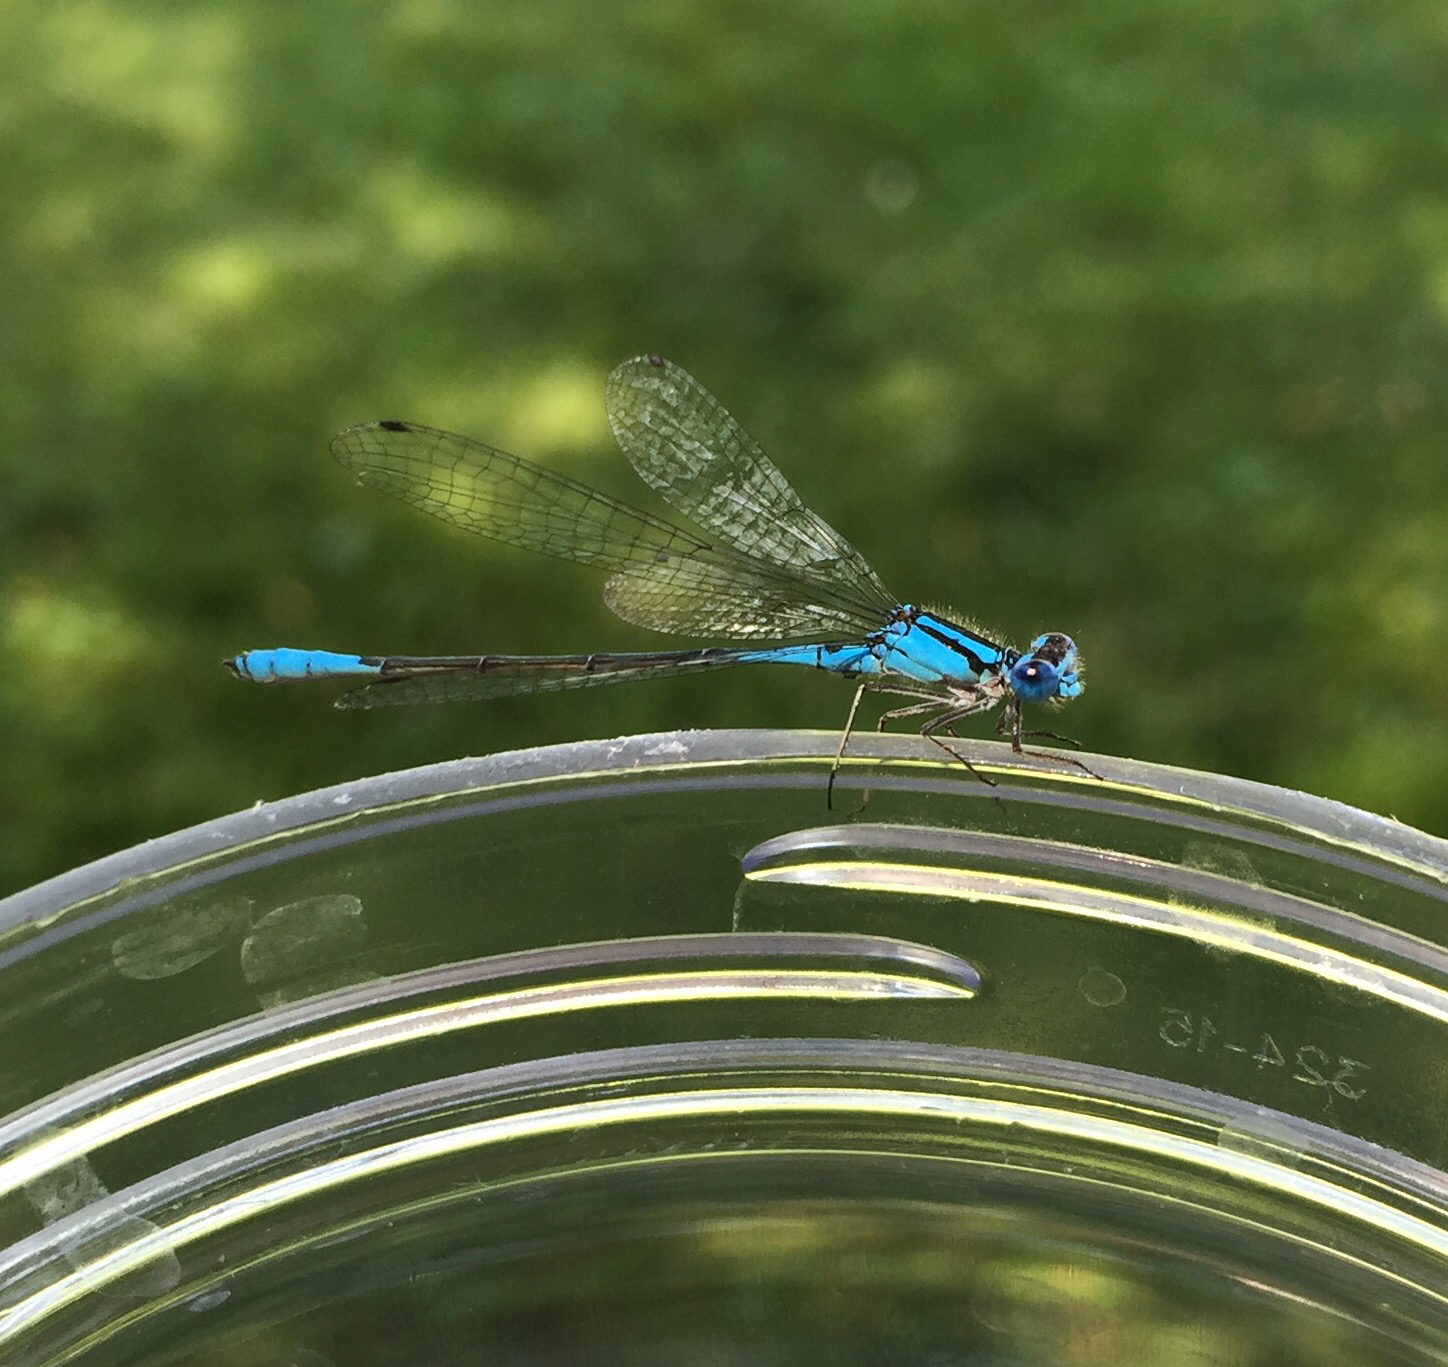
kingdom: Animalia
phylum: Arthropoda
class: Insecta
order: Odonata
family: Coenagrionidae
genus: Enallagma
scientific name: Enallagma aspersum
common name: Azure bluet
